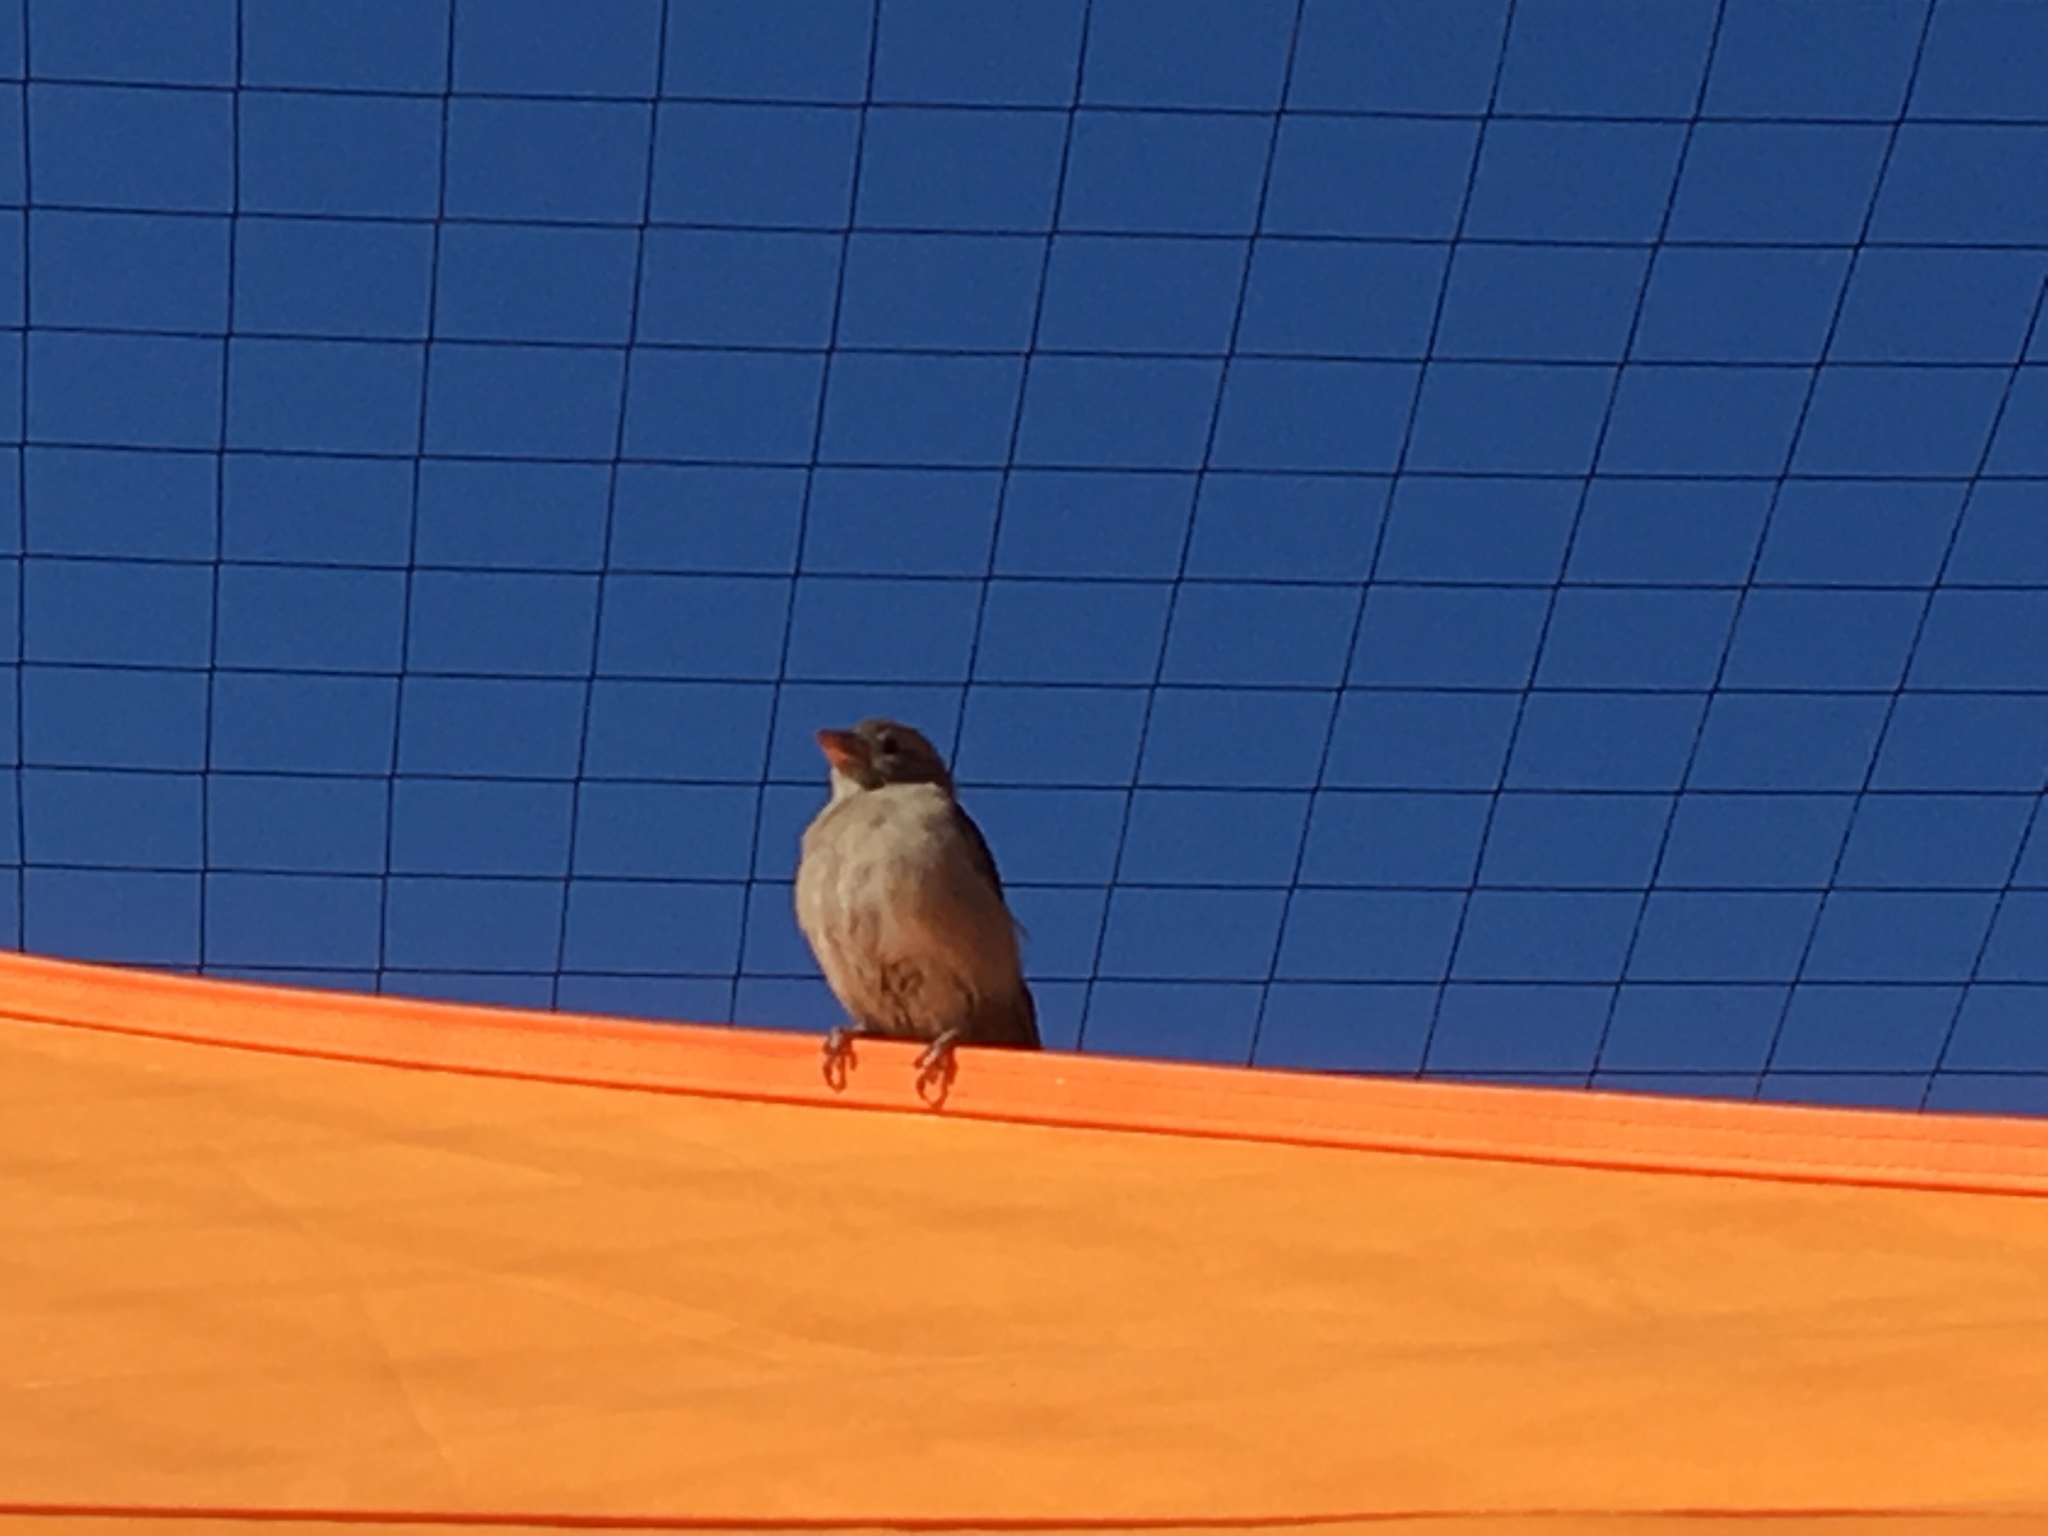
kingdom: Animalia
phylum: Chordata
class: Aves
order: Passeriformes
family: Passeridae
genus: Passer
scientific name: Passer domesticus
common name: House sparrow
